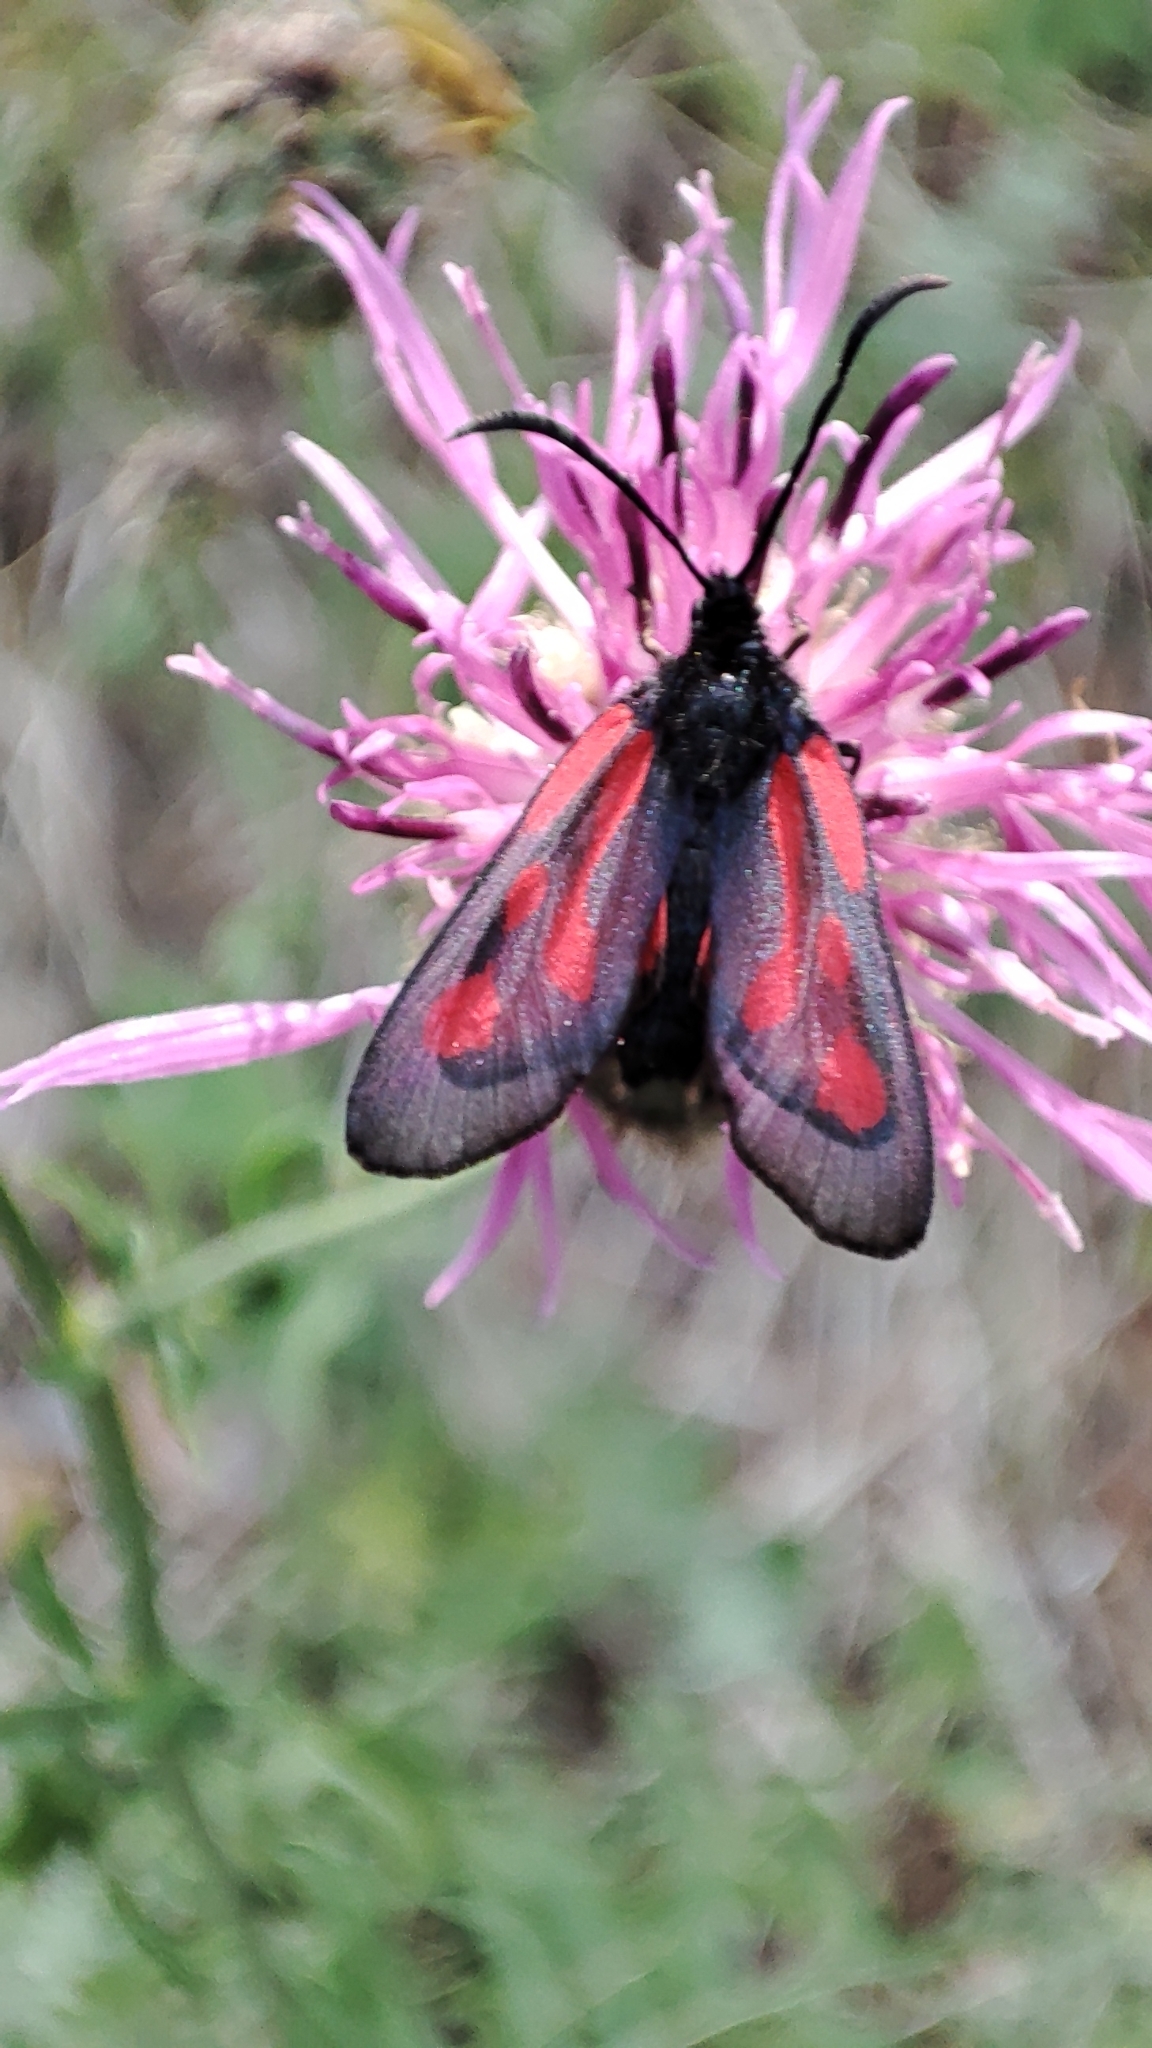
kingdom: Animalia
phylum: Arthropoda
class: Insecta
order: Lepidoptera
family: Zygaenidae
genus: Zygaena
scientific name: Zygaena osterodensis
